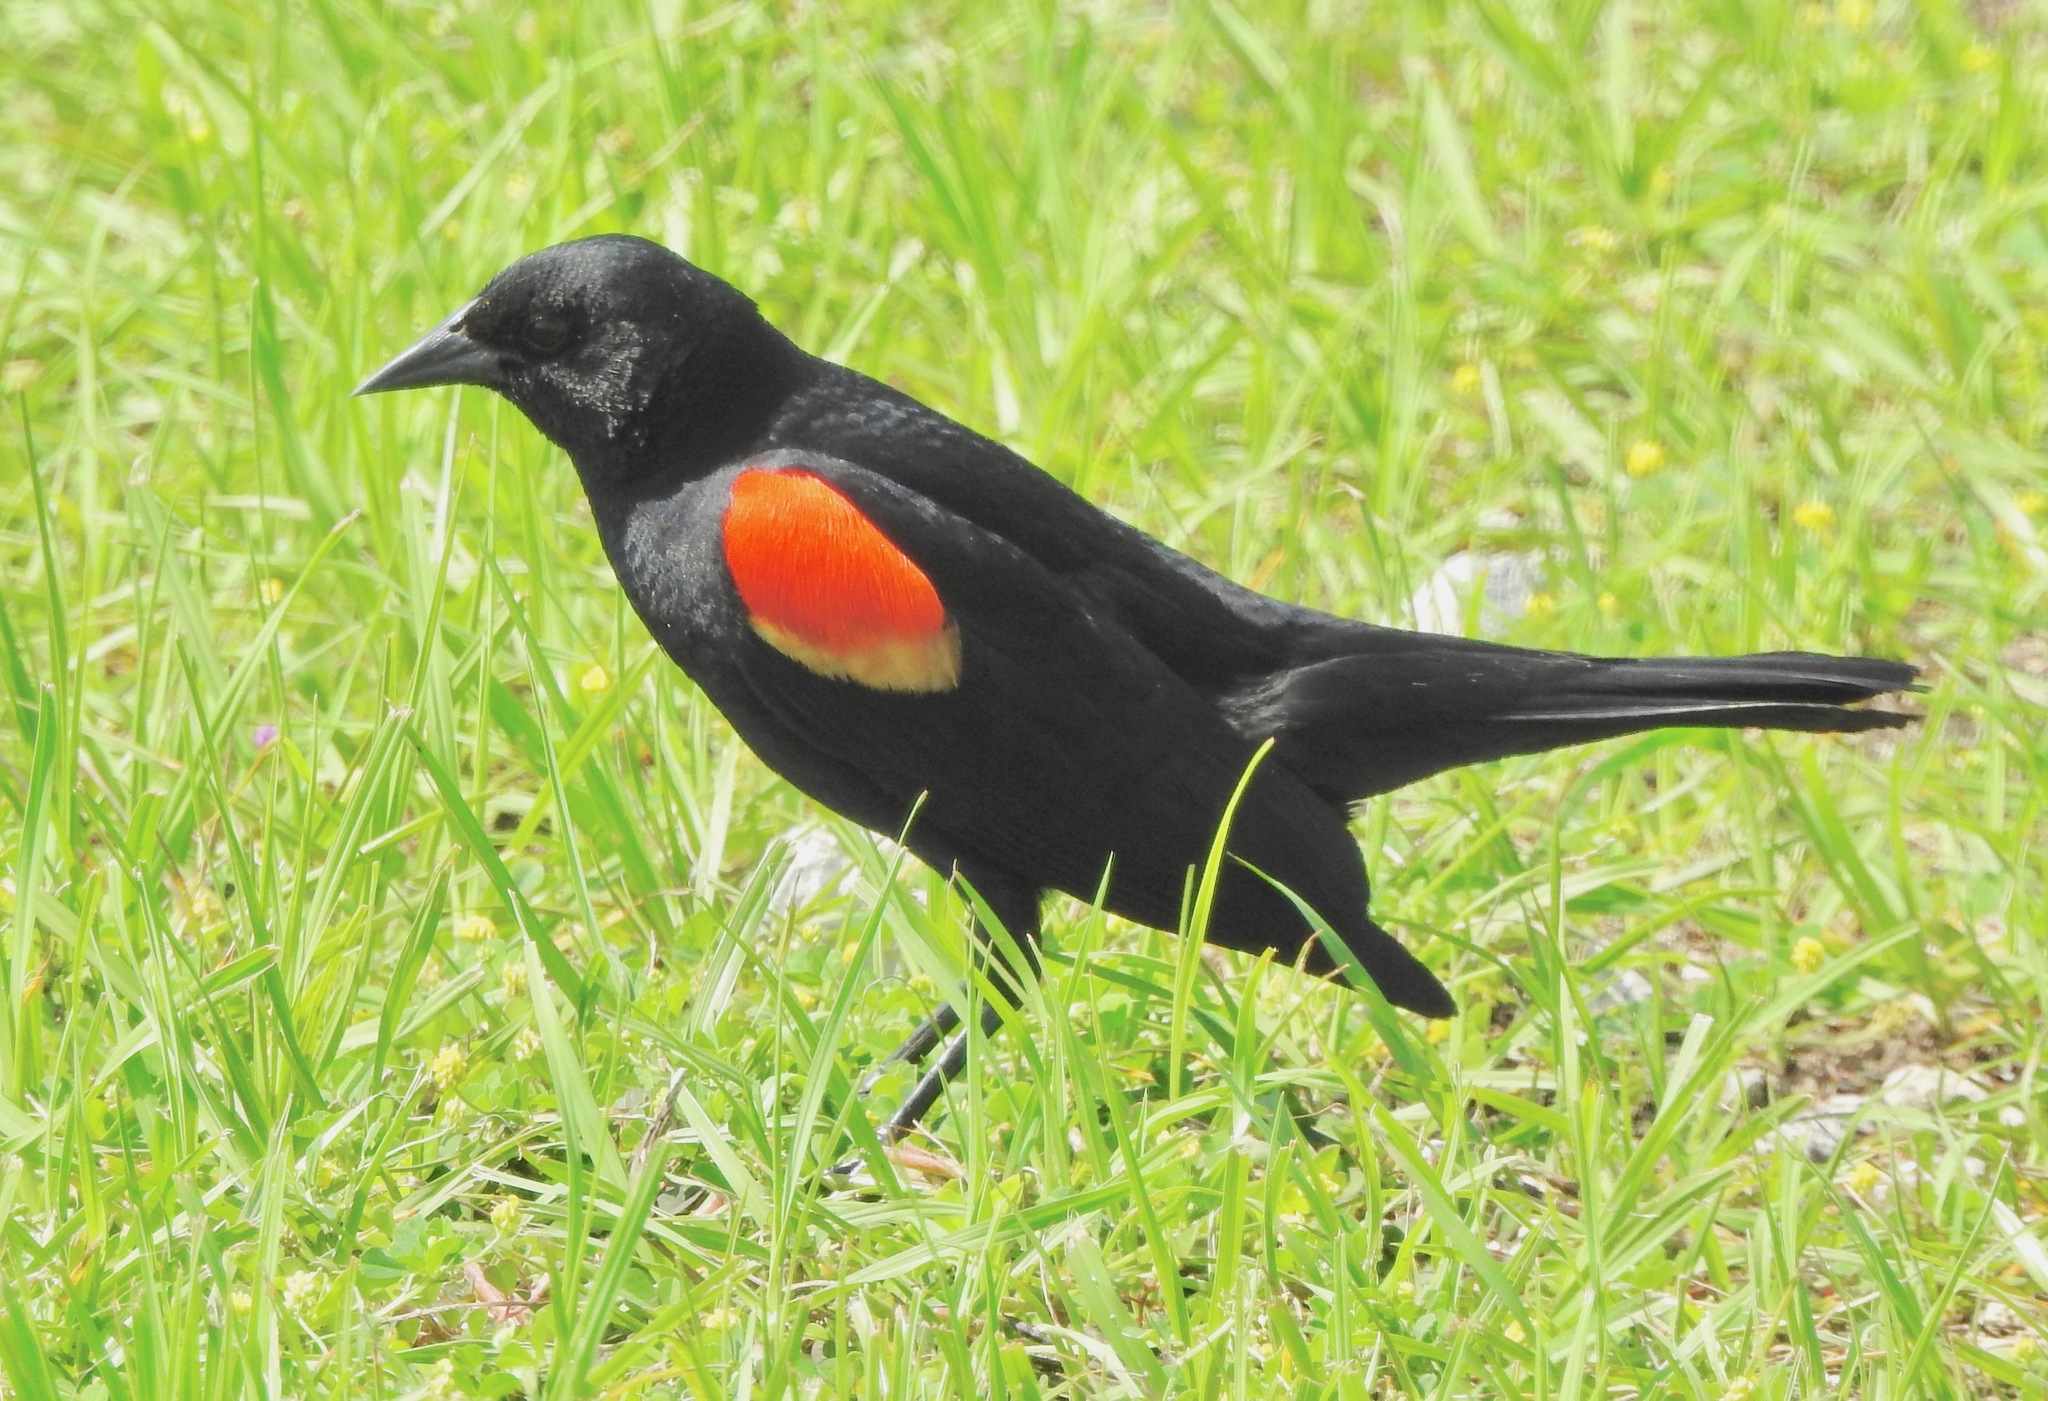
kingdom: Animalia
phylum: Chordata
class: Aves
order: Passeriformes
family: Icteridae
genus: Agelaius
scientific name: Agelaius phoeniceus
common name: Red-winged blackbird
